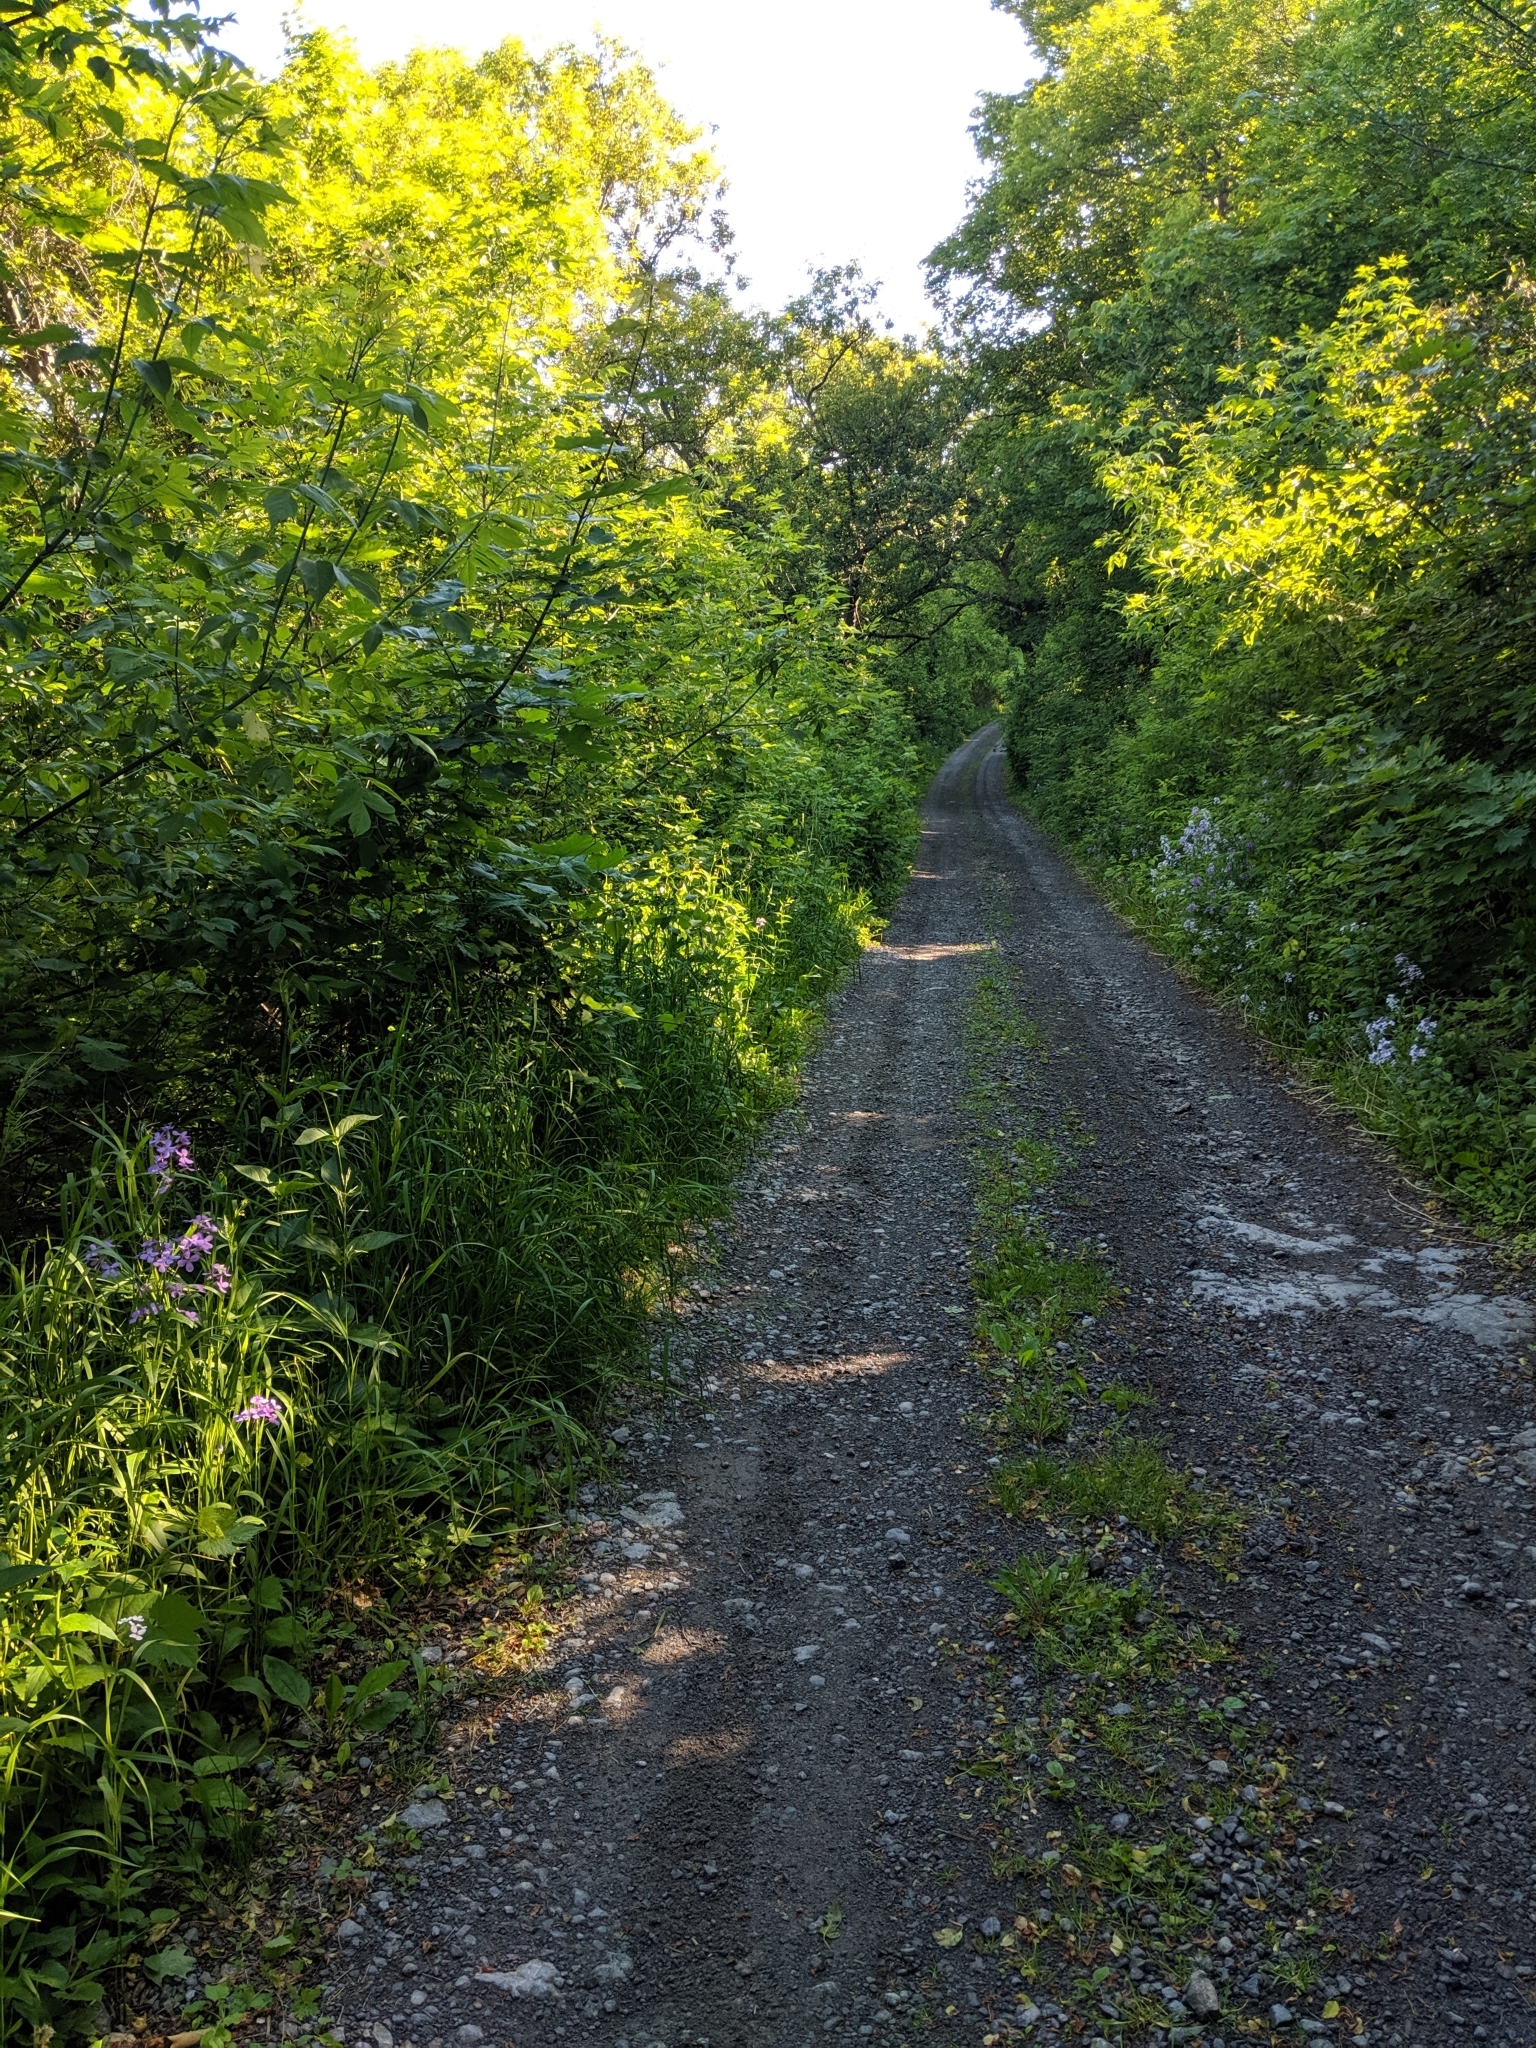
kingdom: Plantae
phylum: Tracheophyta
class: Magnoliopsida
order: Gentianales
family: Apocynaceae
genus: Vincetoxicum
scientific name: Vincetoxicum rossicum
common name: Dog-strangling vine
